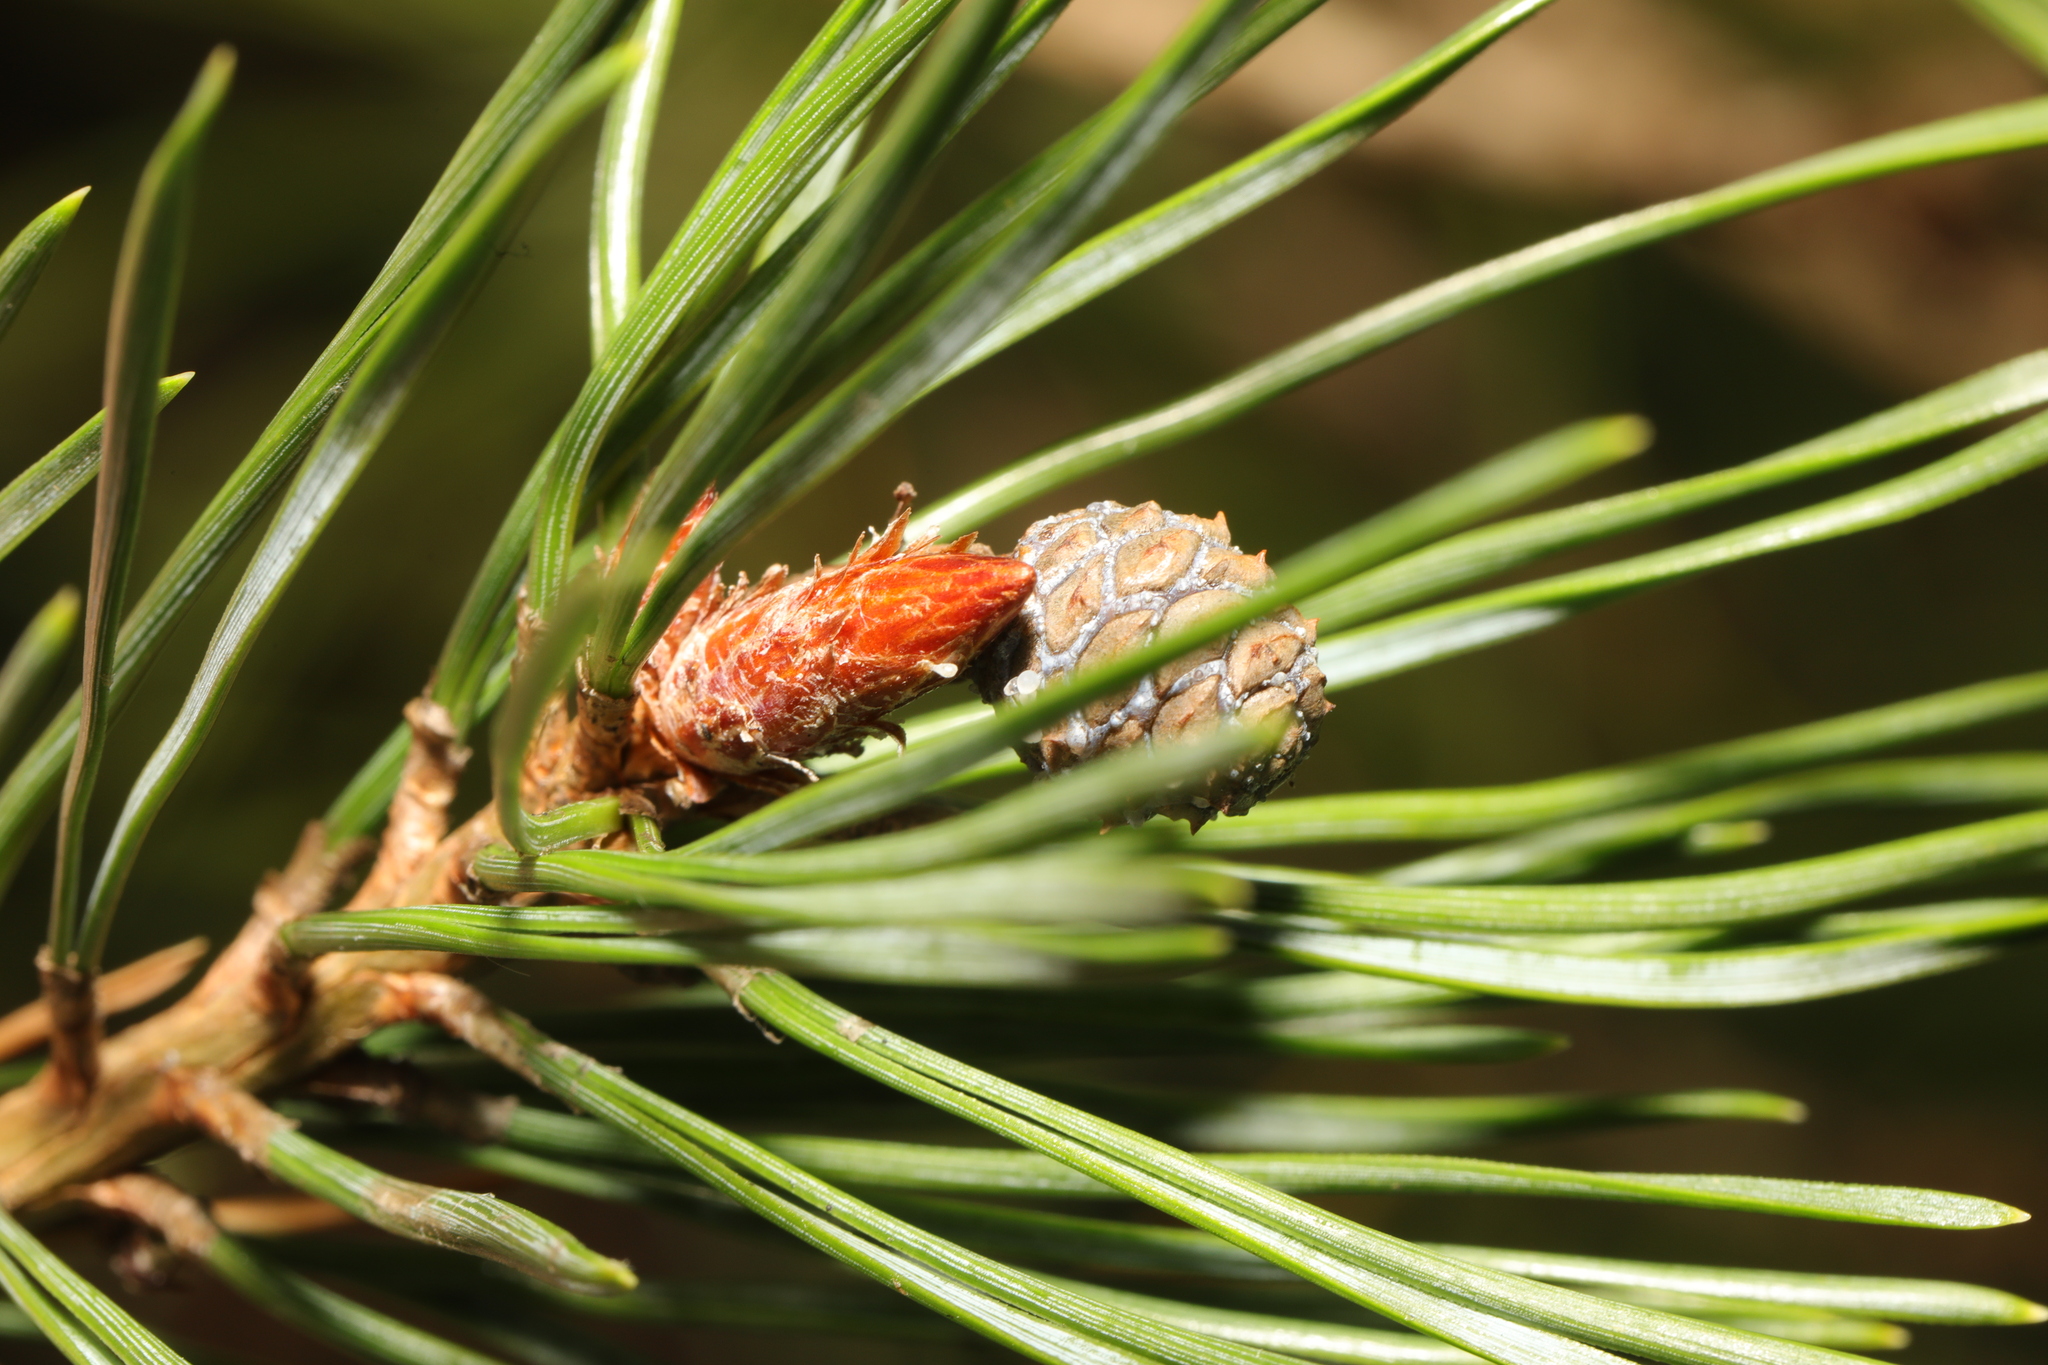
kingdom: Plantae
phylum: Tracheophyta
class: Pinopsida
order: Pinales
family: Pinaceae
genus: Pinus
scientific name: Pinus sylvestris
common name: Scots pine
